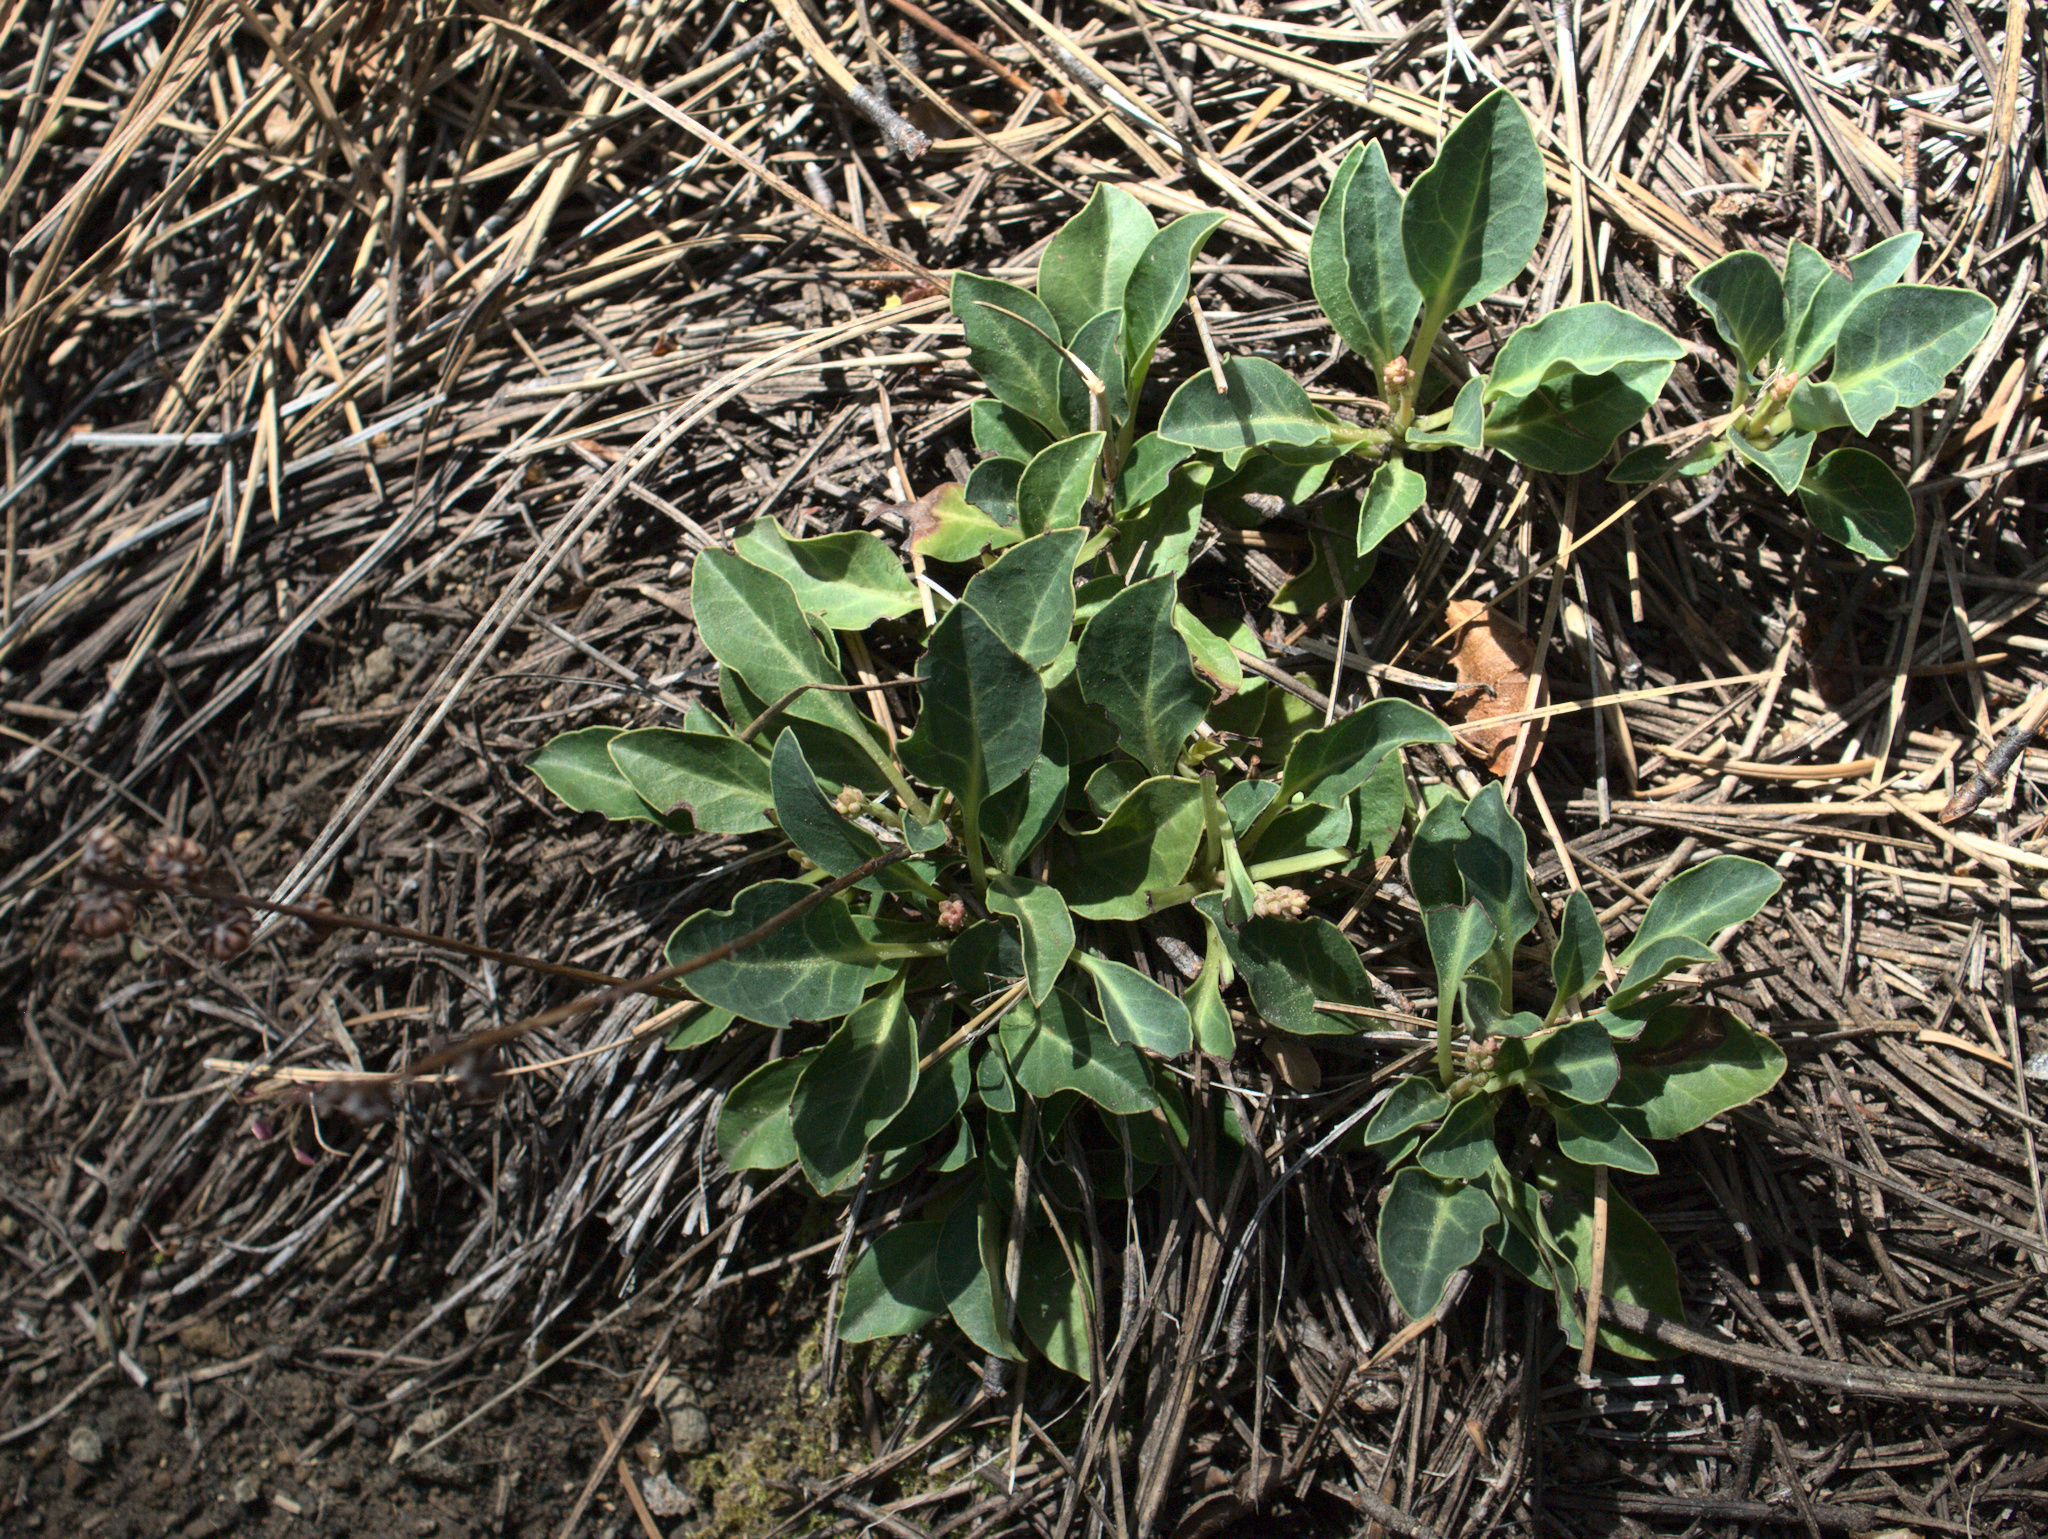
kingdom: Plantae
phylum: Tracheophyta
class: Magnoliopsida
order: Ericales
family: Ericaceae
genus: Pyrola
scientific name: Pyrola dentata
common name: Tooth-leaved wintergreen
